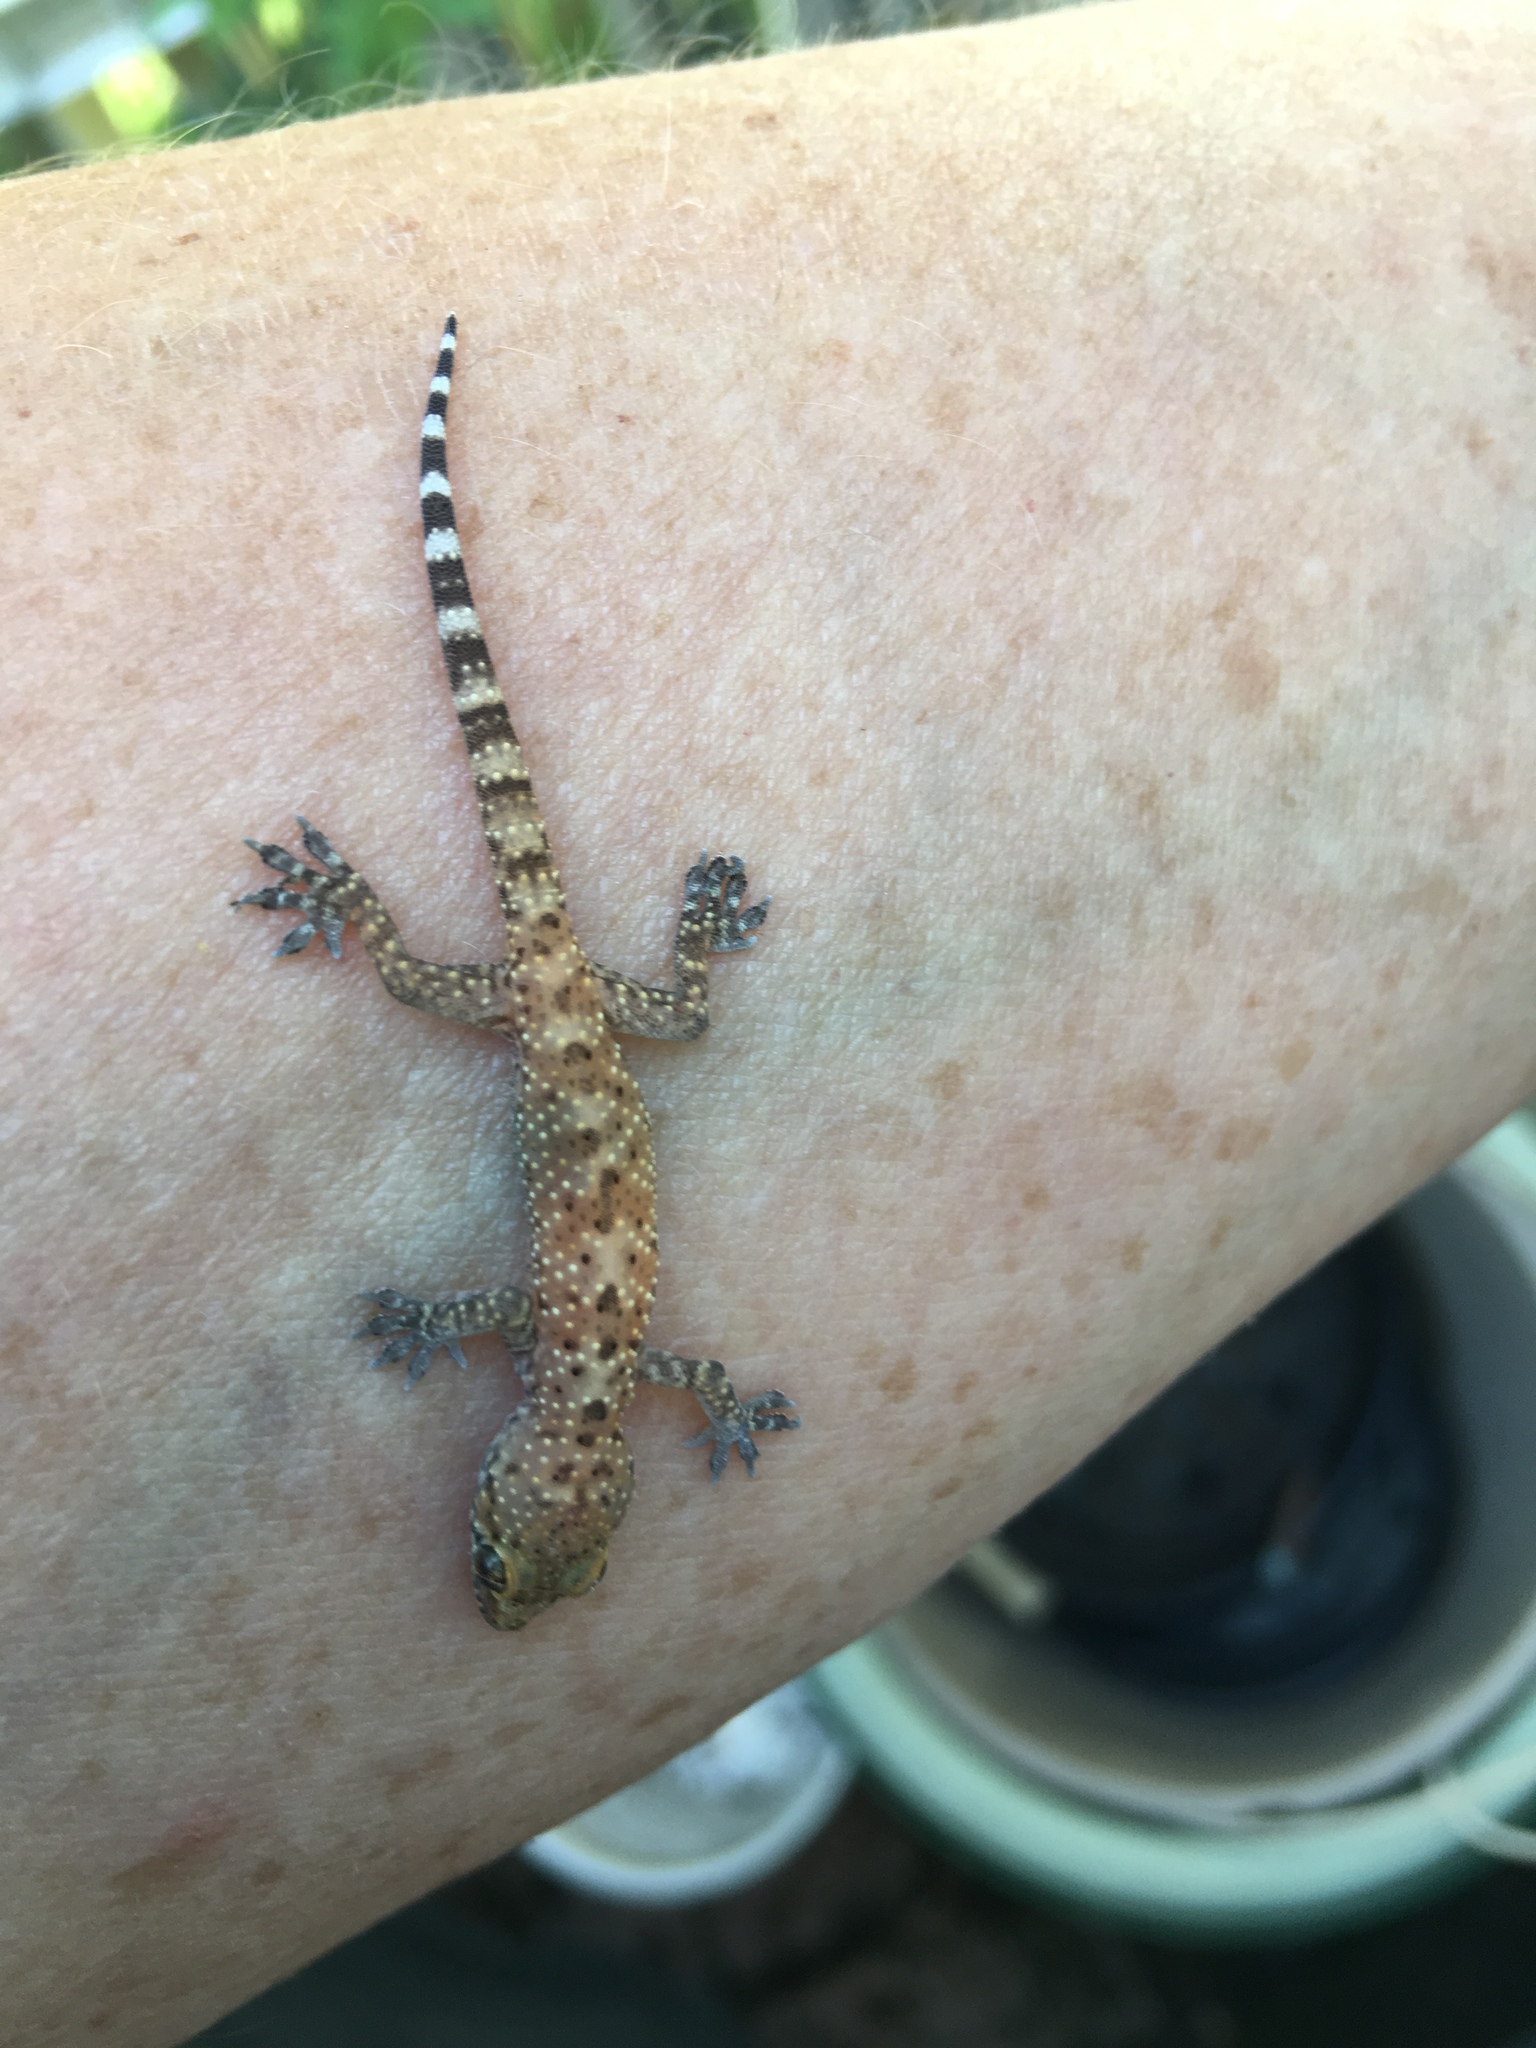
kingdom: Animalia
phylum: Chordata
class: Squamata
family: Gekkonidae
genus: Hemidactylus
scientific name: Hemidactylus turcicus
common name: Turkish gecko
